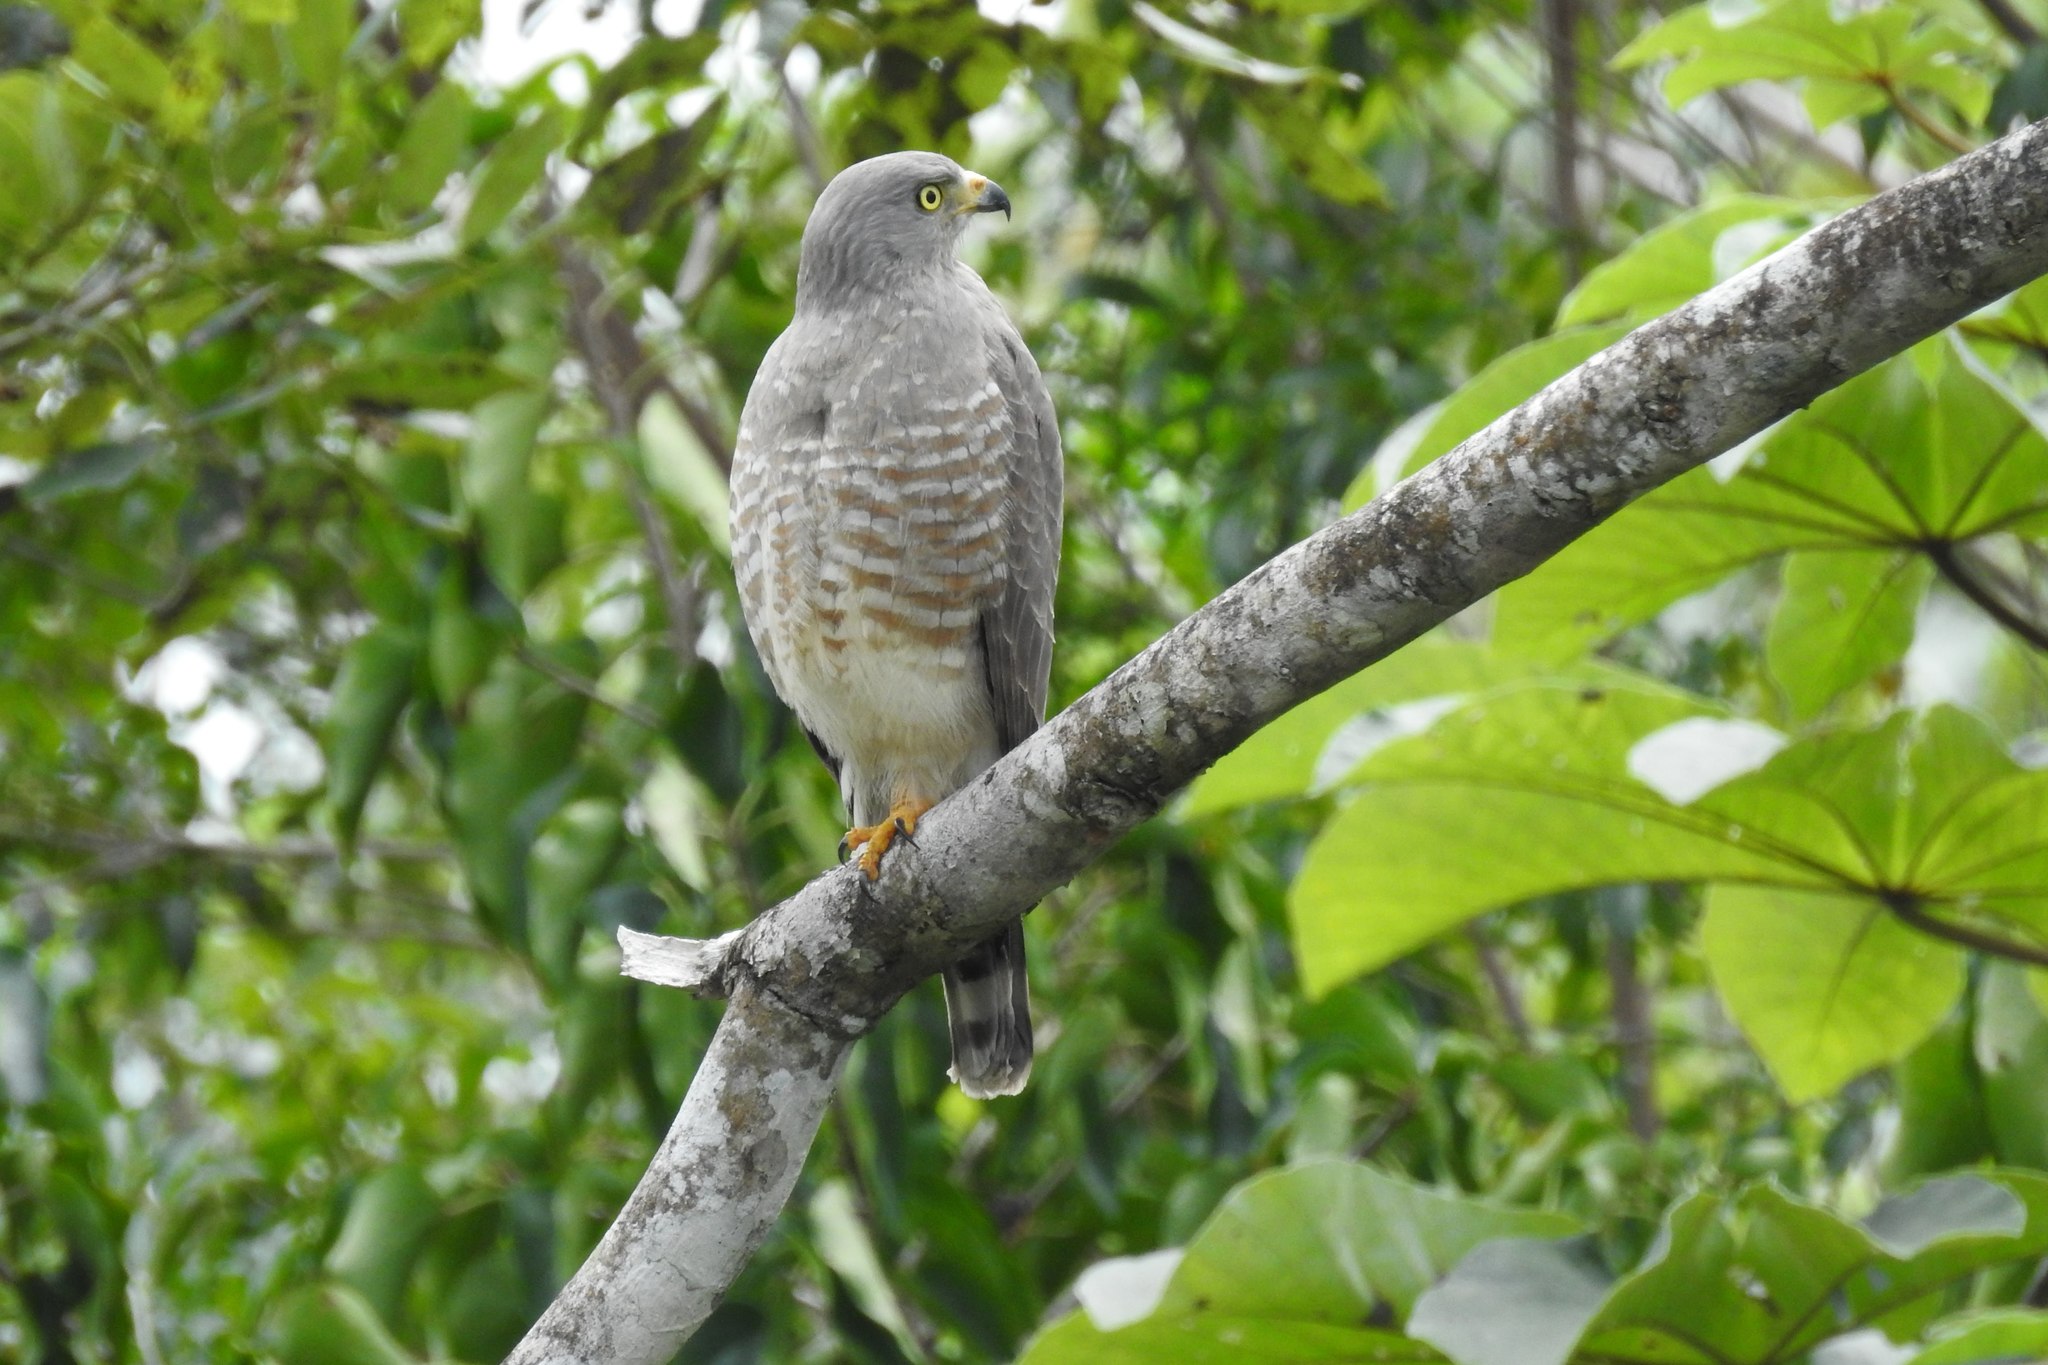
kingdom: Animalia
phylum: Chordata
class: Aves
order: Accipitriformes
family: Accipitridae
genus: Rupornis
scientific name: Rupornis magnirostris
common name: Roadside hawk
